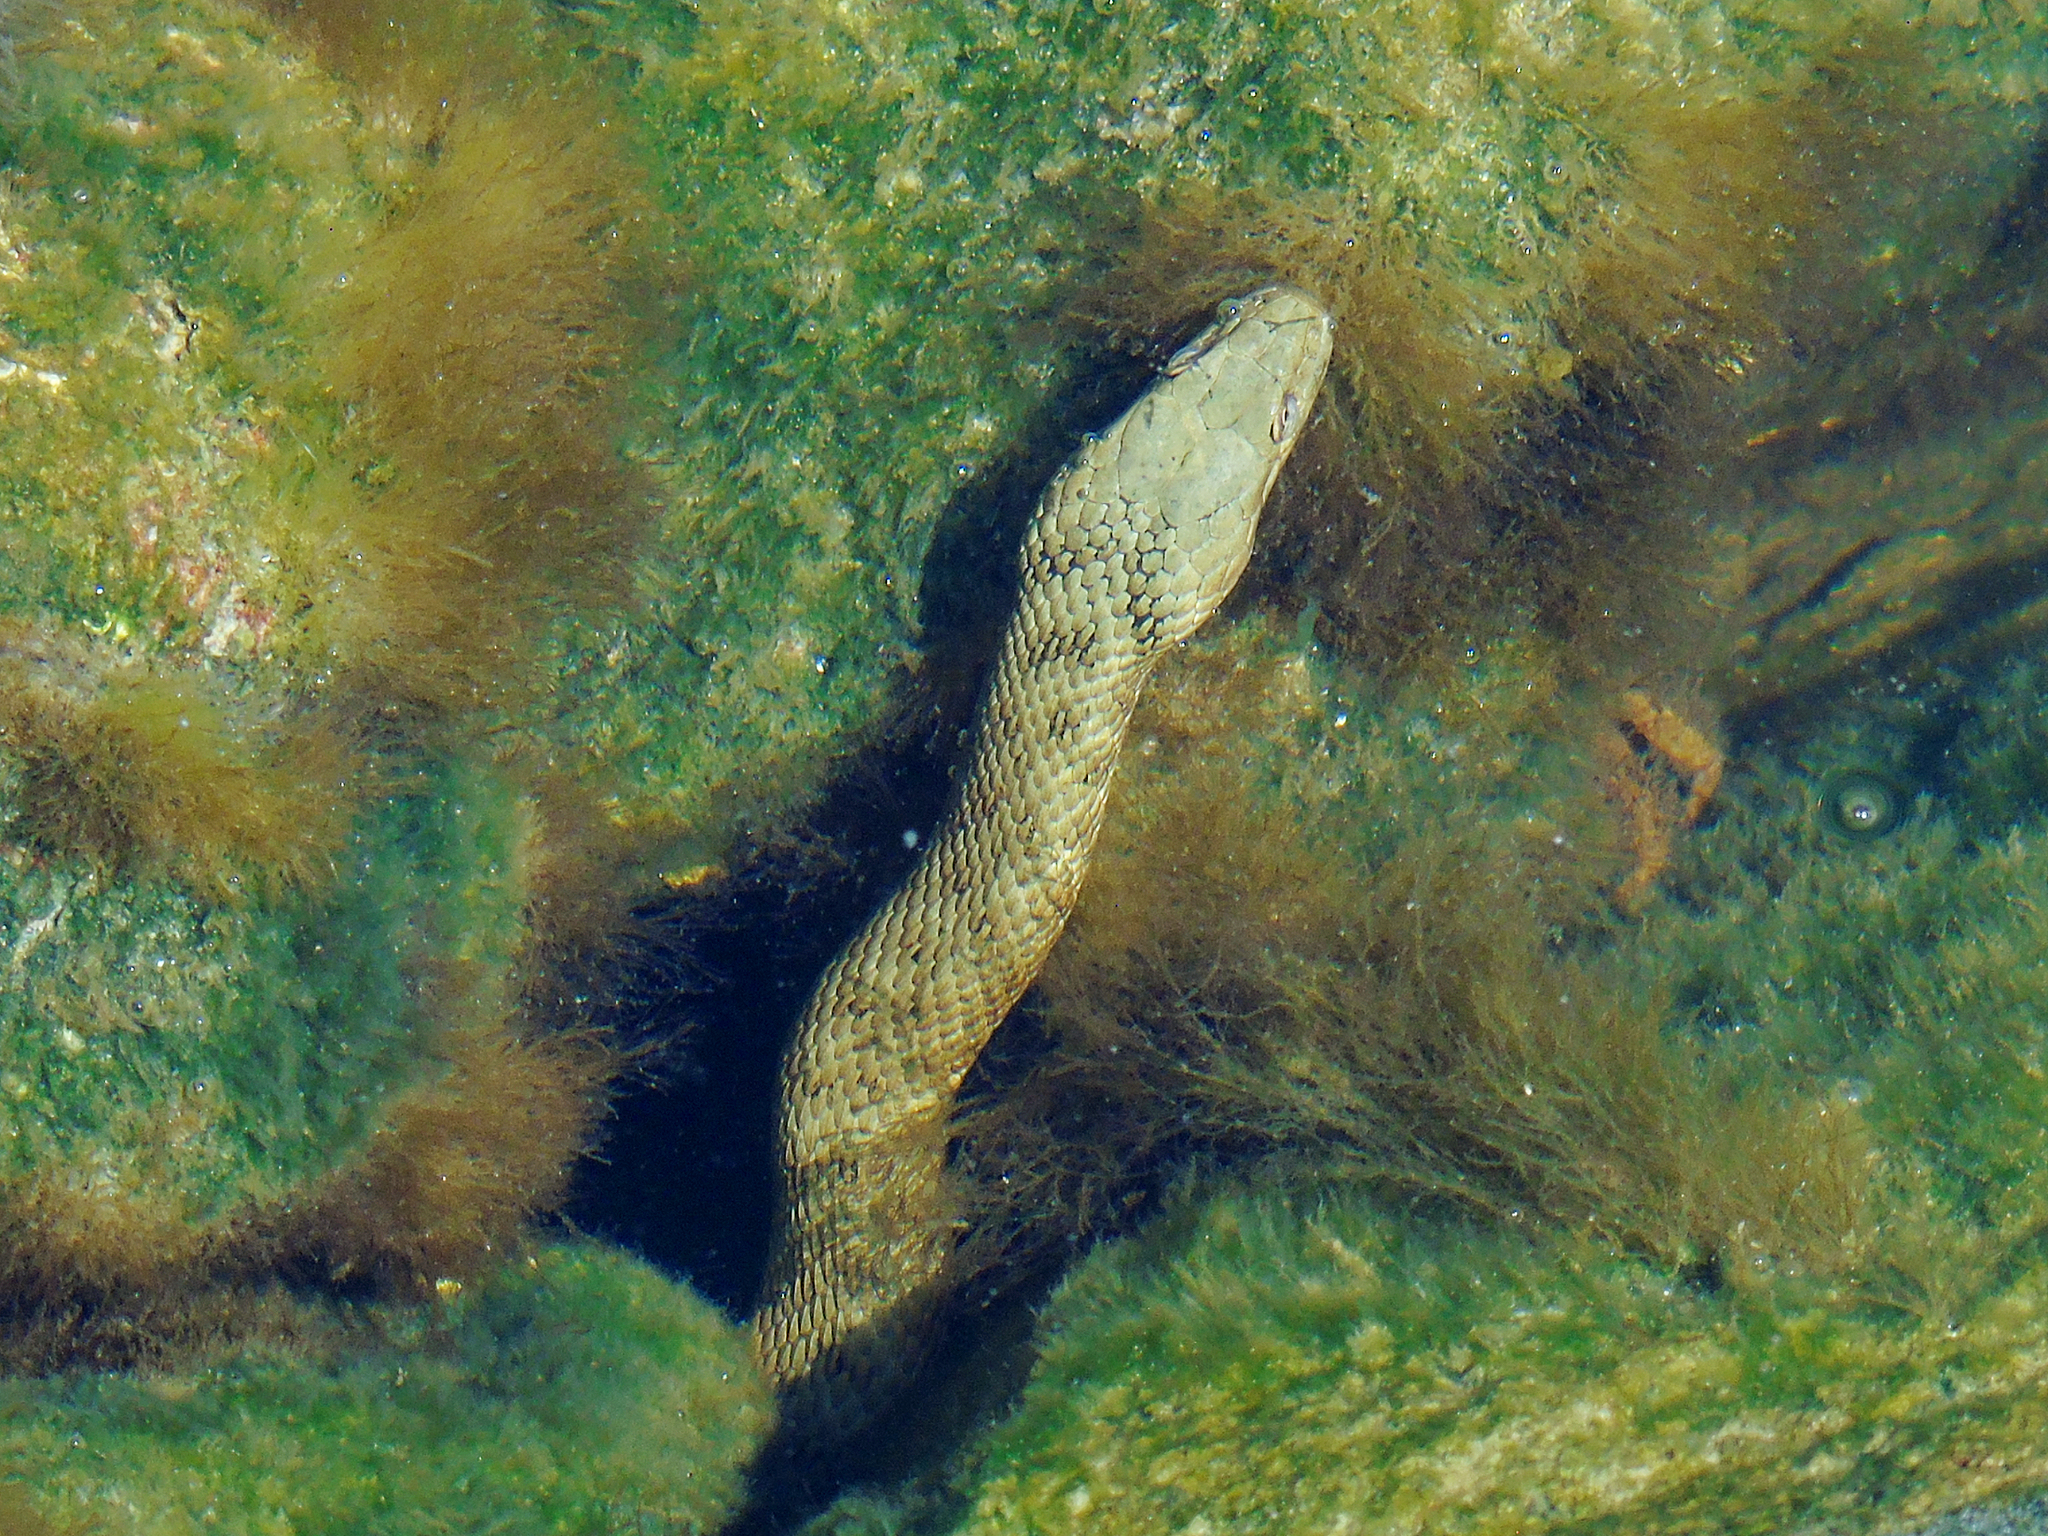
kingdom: Animalia
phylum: Chordata
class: Squamata
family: Colubridae
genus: Natrix
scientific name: Natrix tessellata
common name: Dice snake
